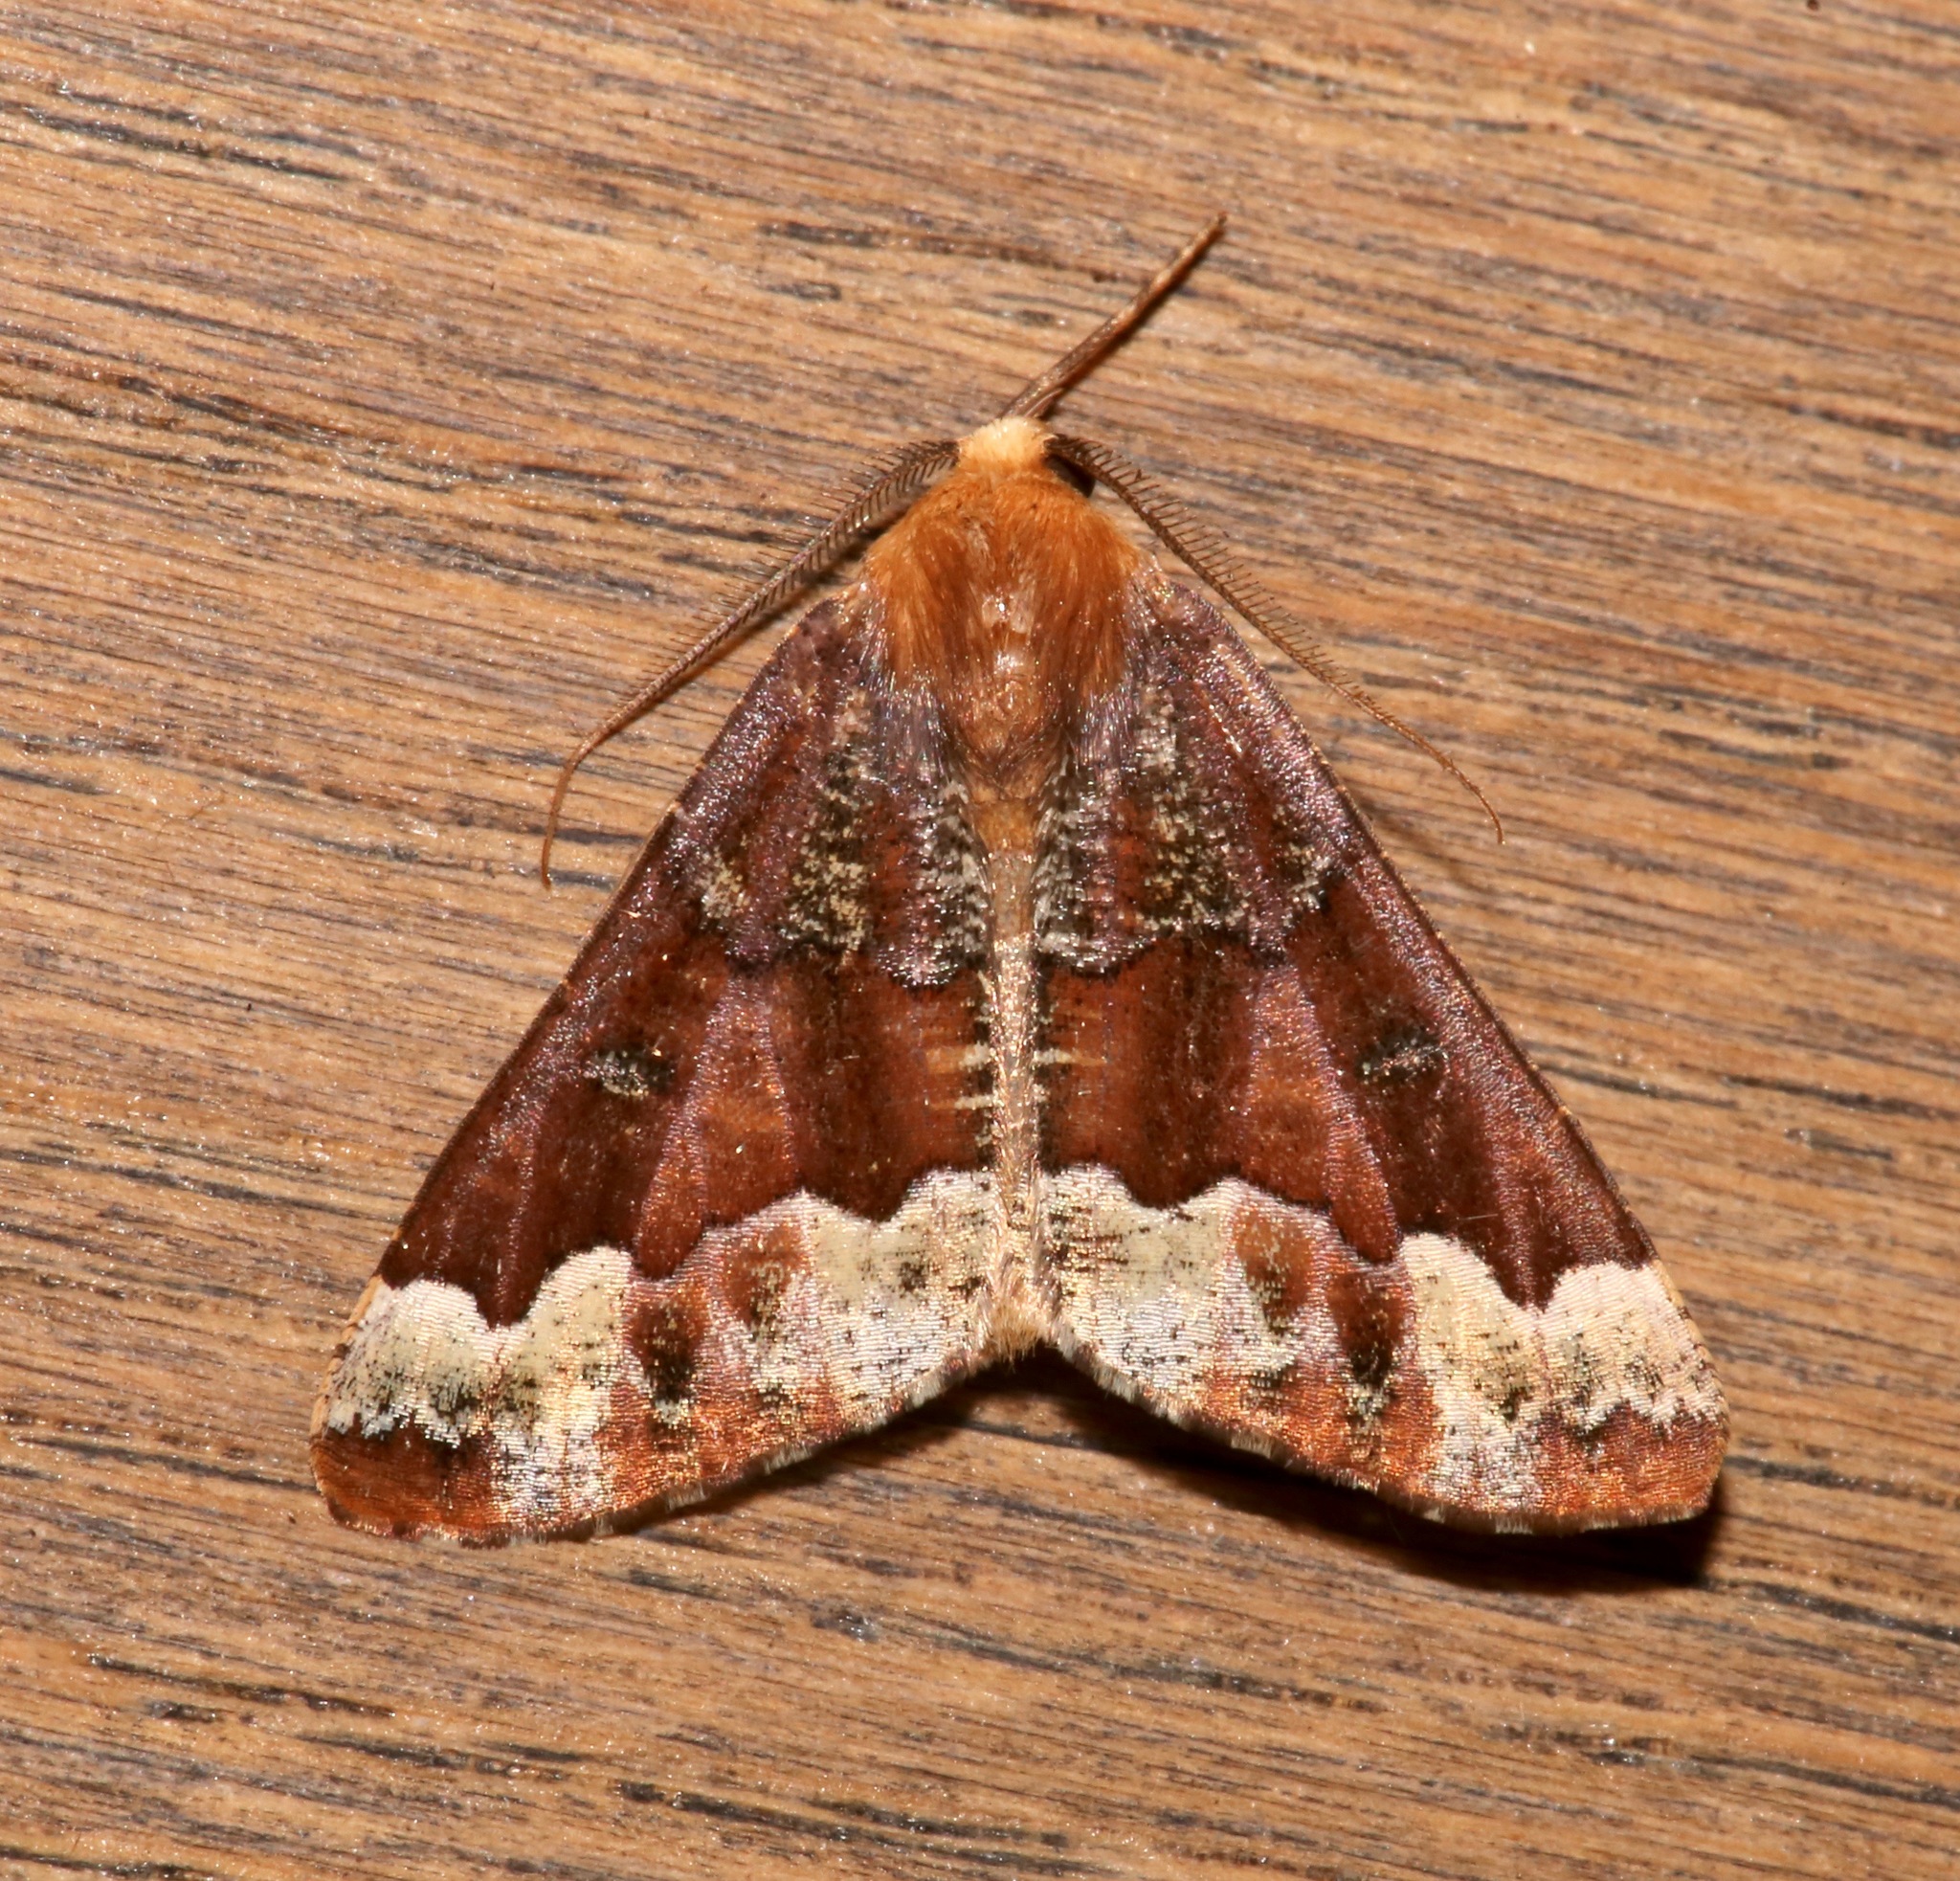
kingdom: Animalia
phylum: Arthropoda
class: Insecta
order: Lepidoptera
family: Geometridae
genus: Caripeta
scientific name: Caripeta pulcherrima
